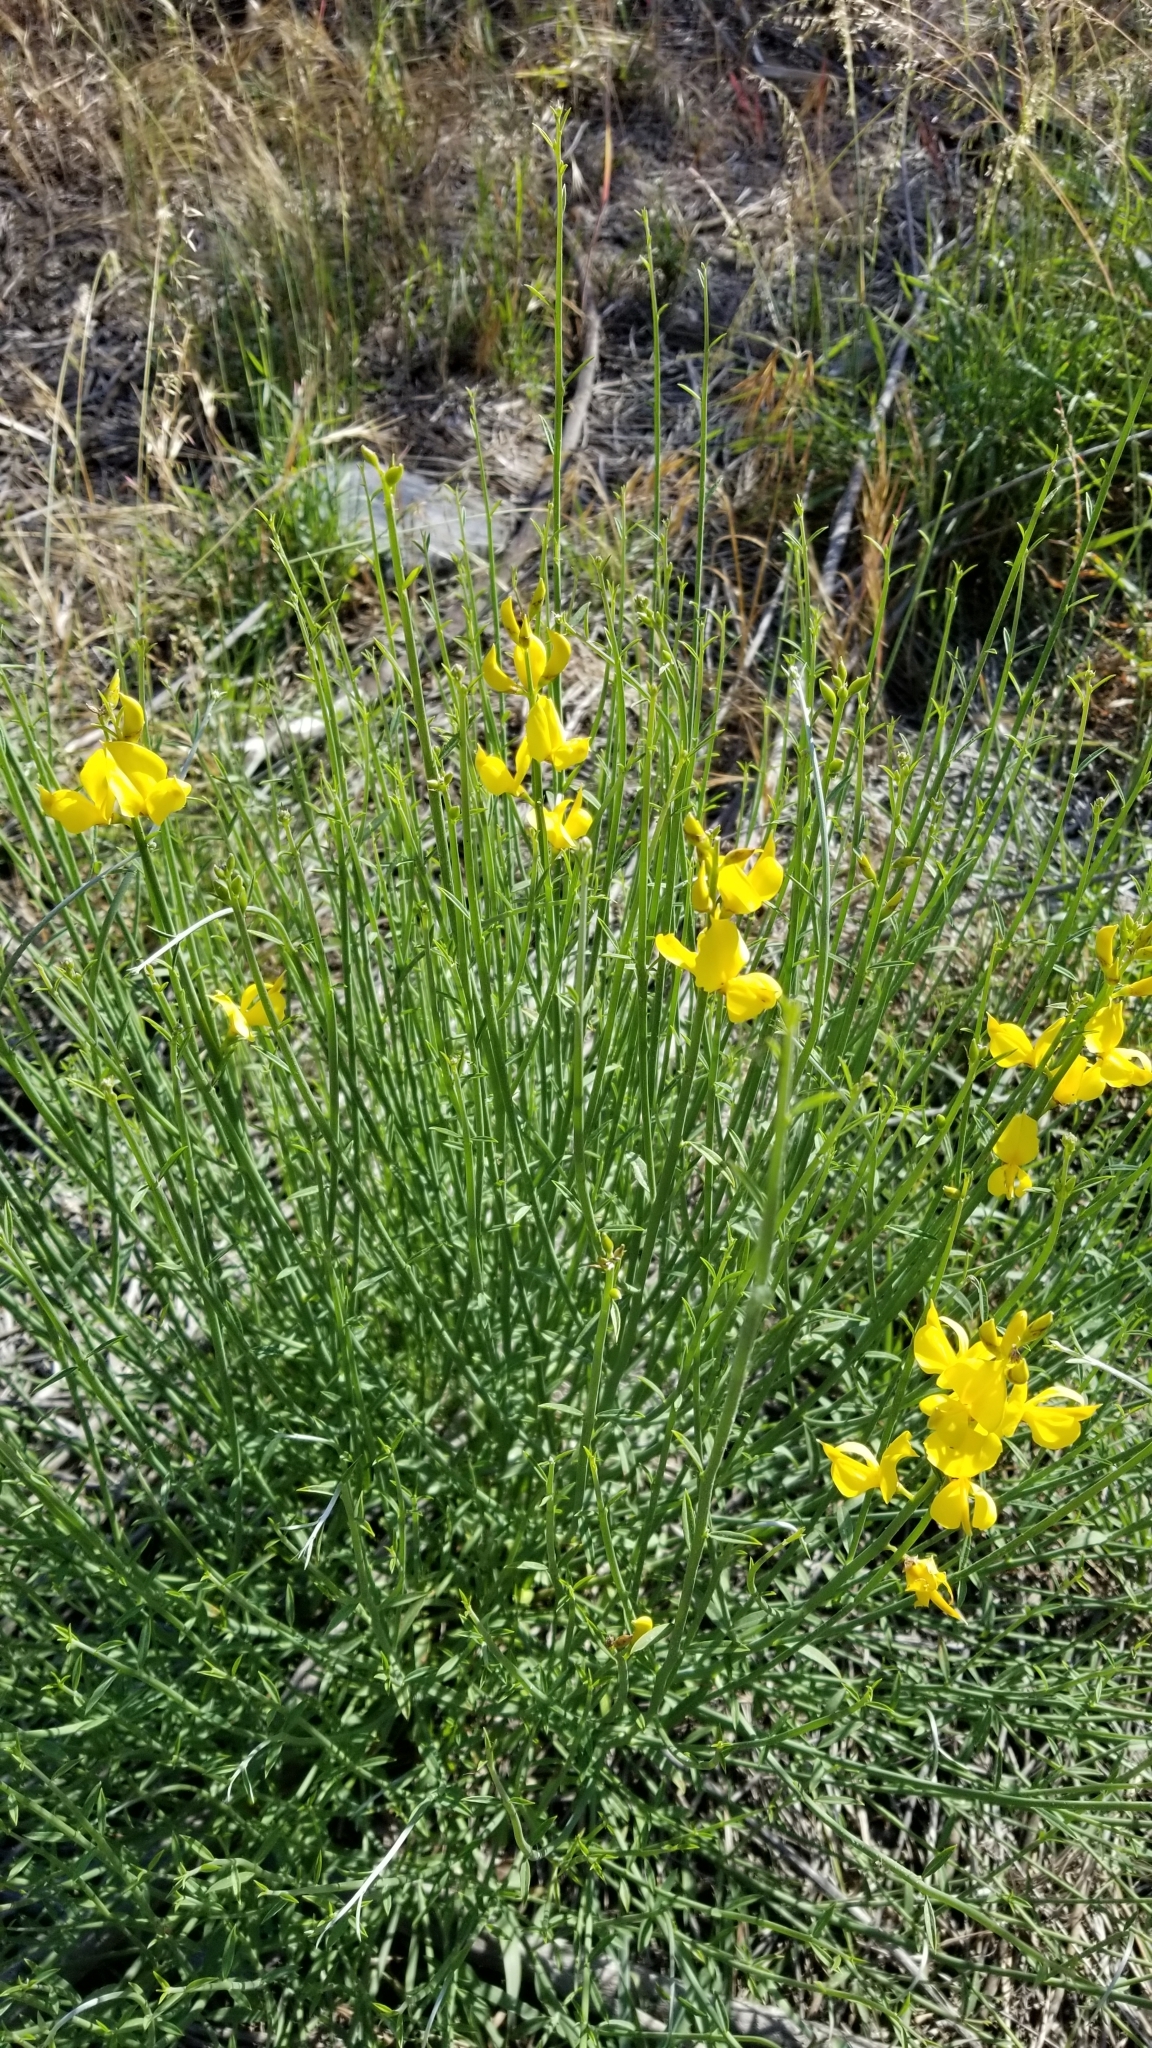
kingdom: Plantae
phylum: Tracheophyta
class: Magnoliopsida
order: Fabales
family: Fabaceae
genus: Spartium
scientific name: Spartium junceum
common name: Spanish broom
